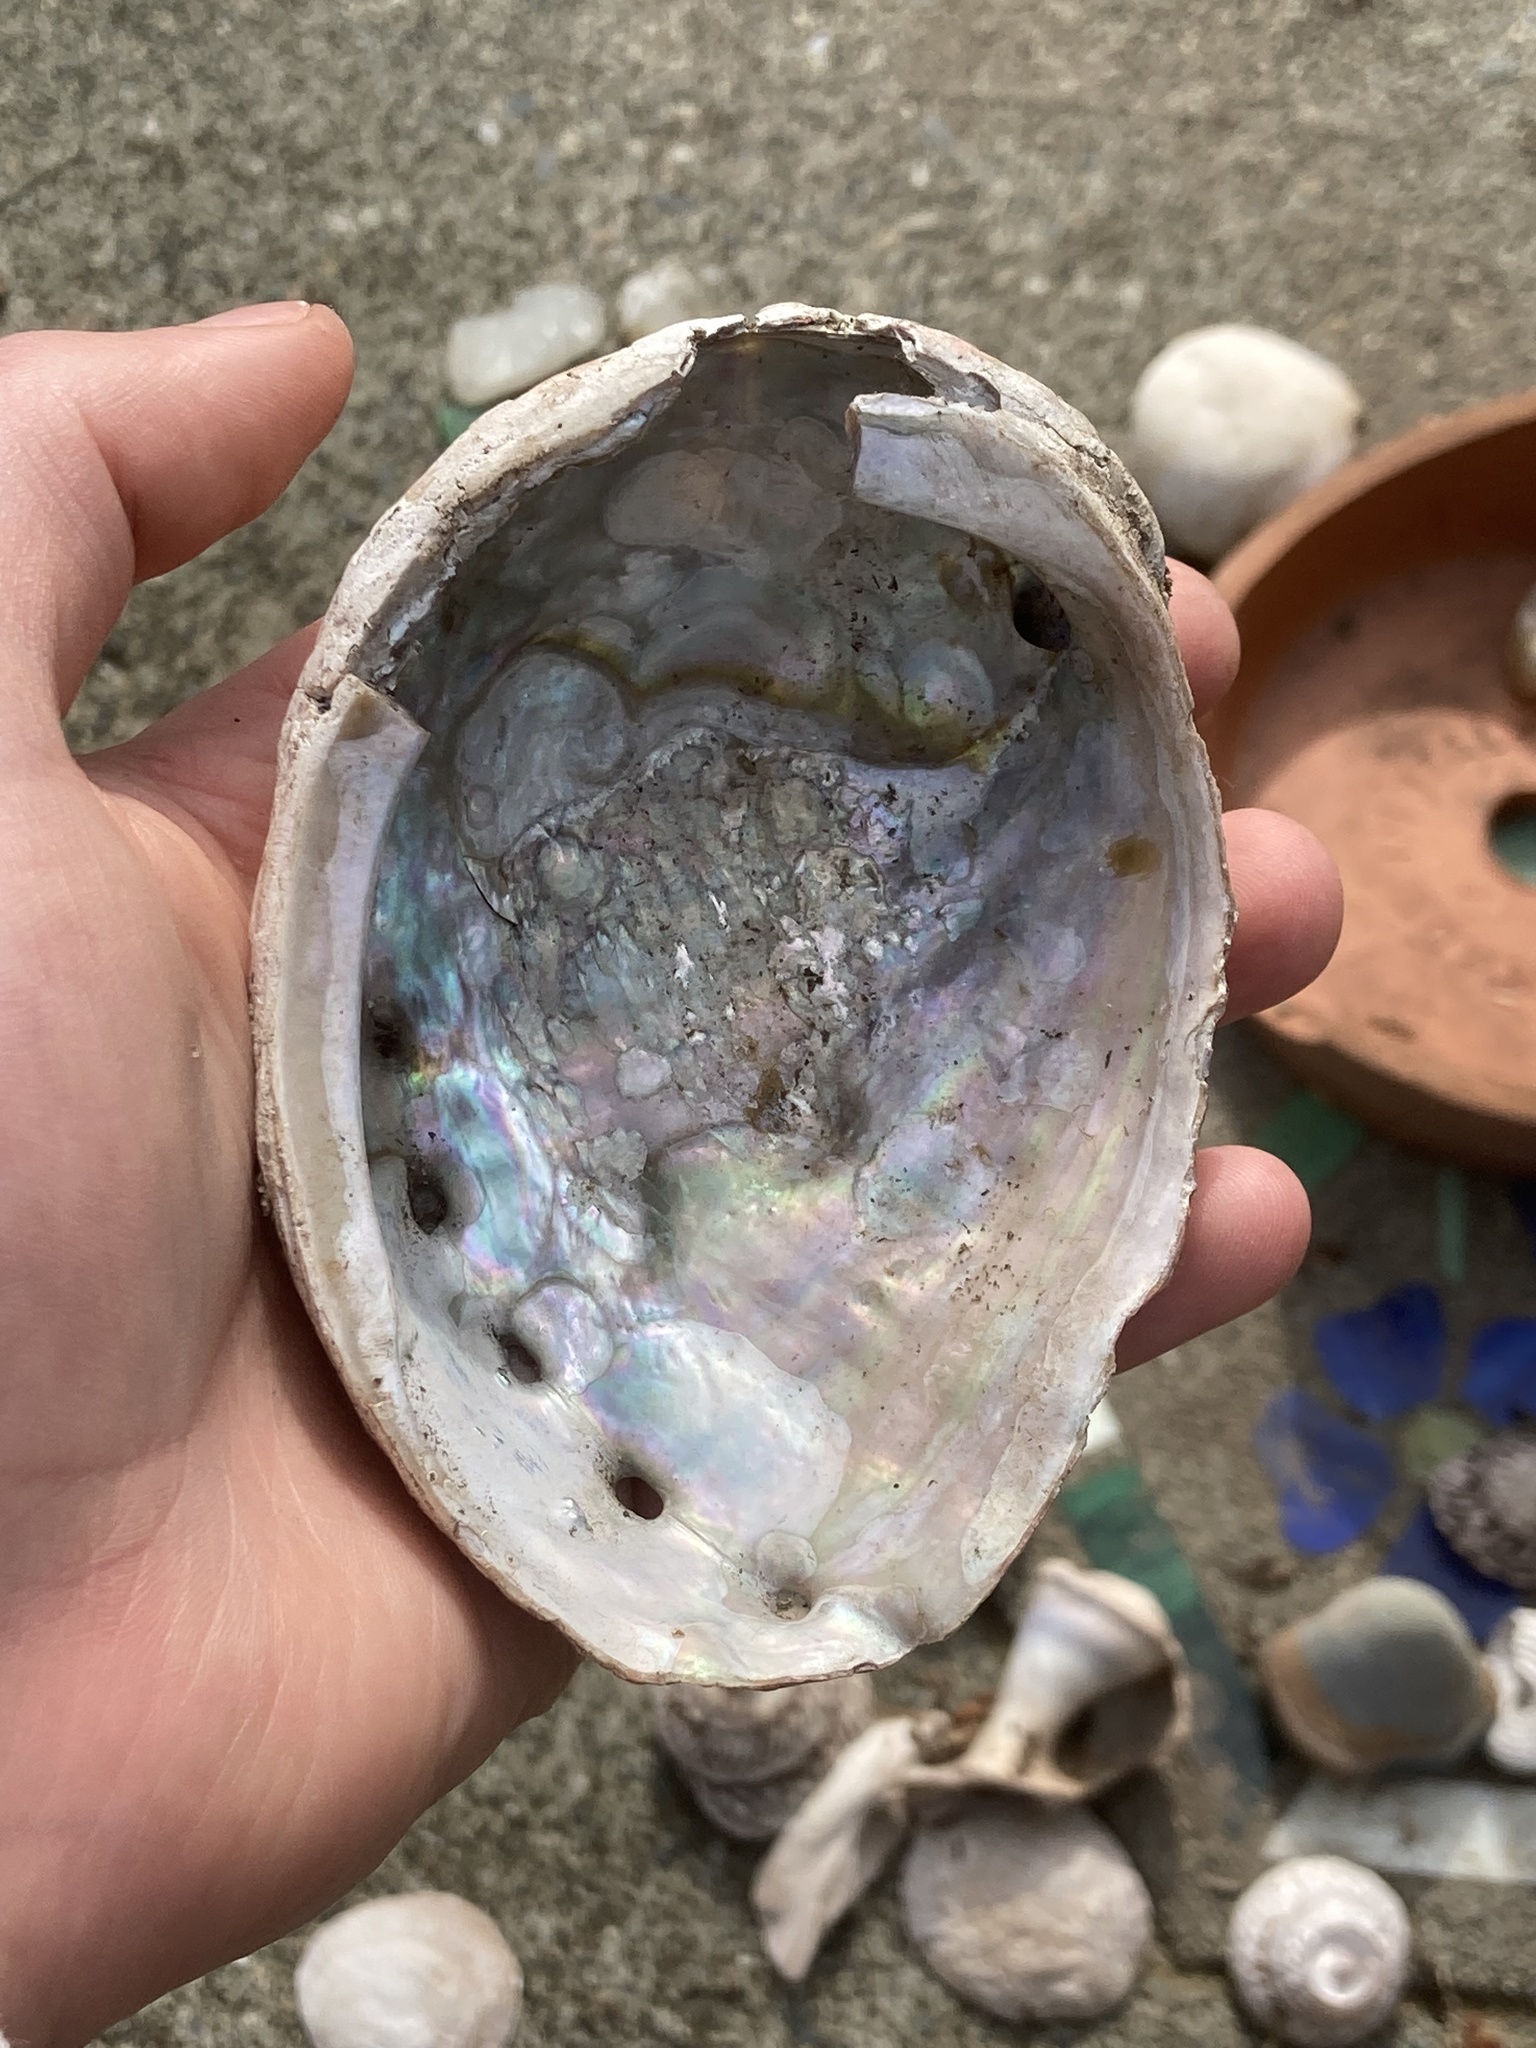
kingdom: Animalia
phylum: Mollusca
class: Gastropoda
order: Lepetellida
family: Haliotidae
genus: Haliotis
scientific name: Haliotis kamtschatkana
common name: Pinto abalone
